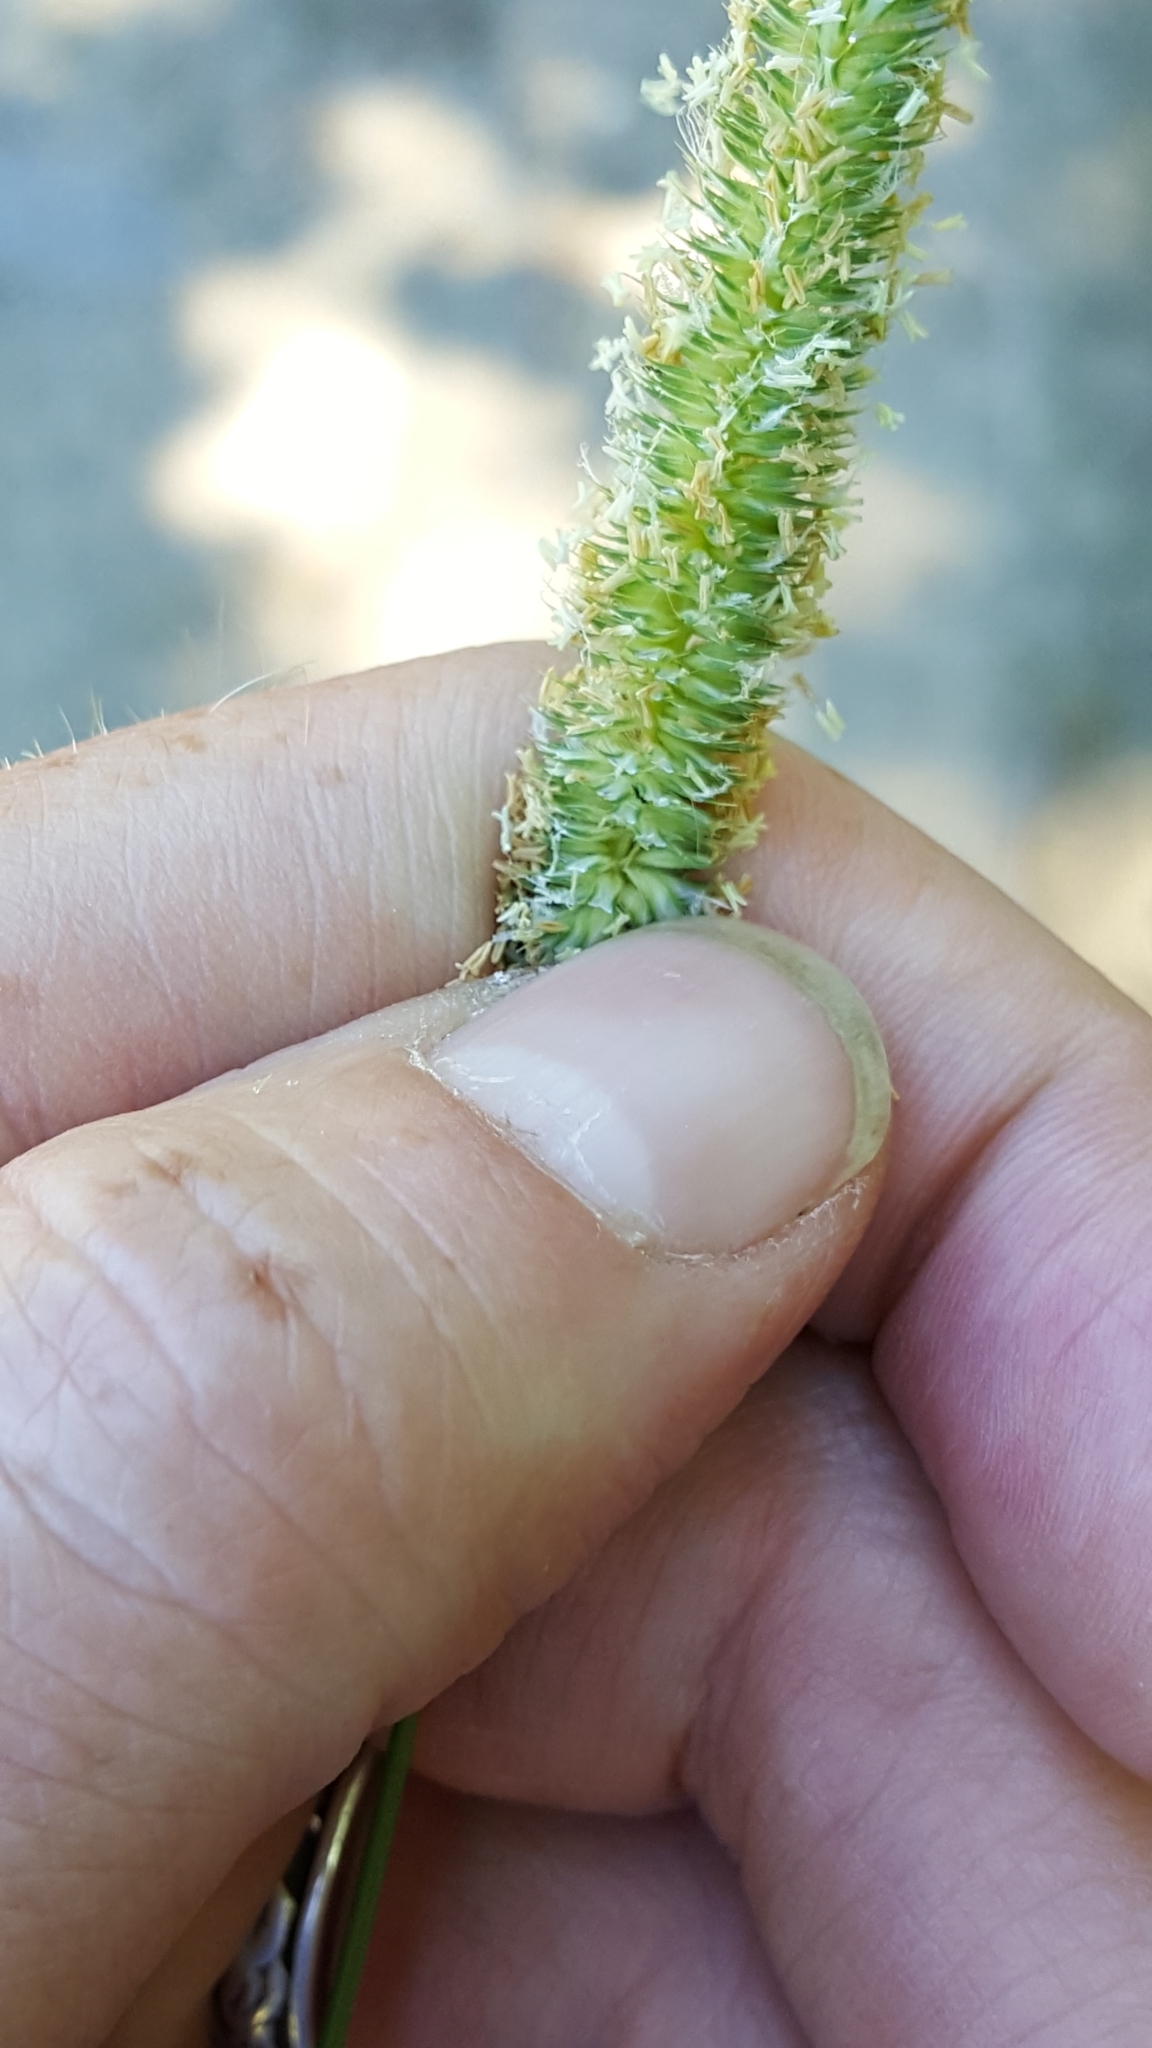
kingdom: Plantae
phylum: Tracheophyta
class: Liliopsida
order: Poales
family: Poaceae
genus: Phleum
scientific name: Phleum pratense
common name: Timothy grass
